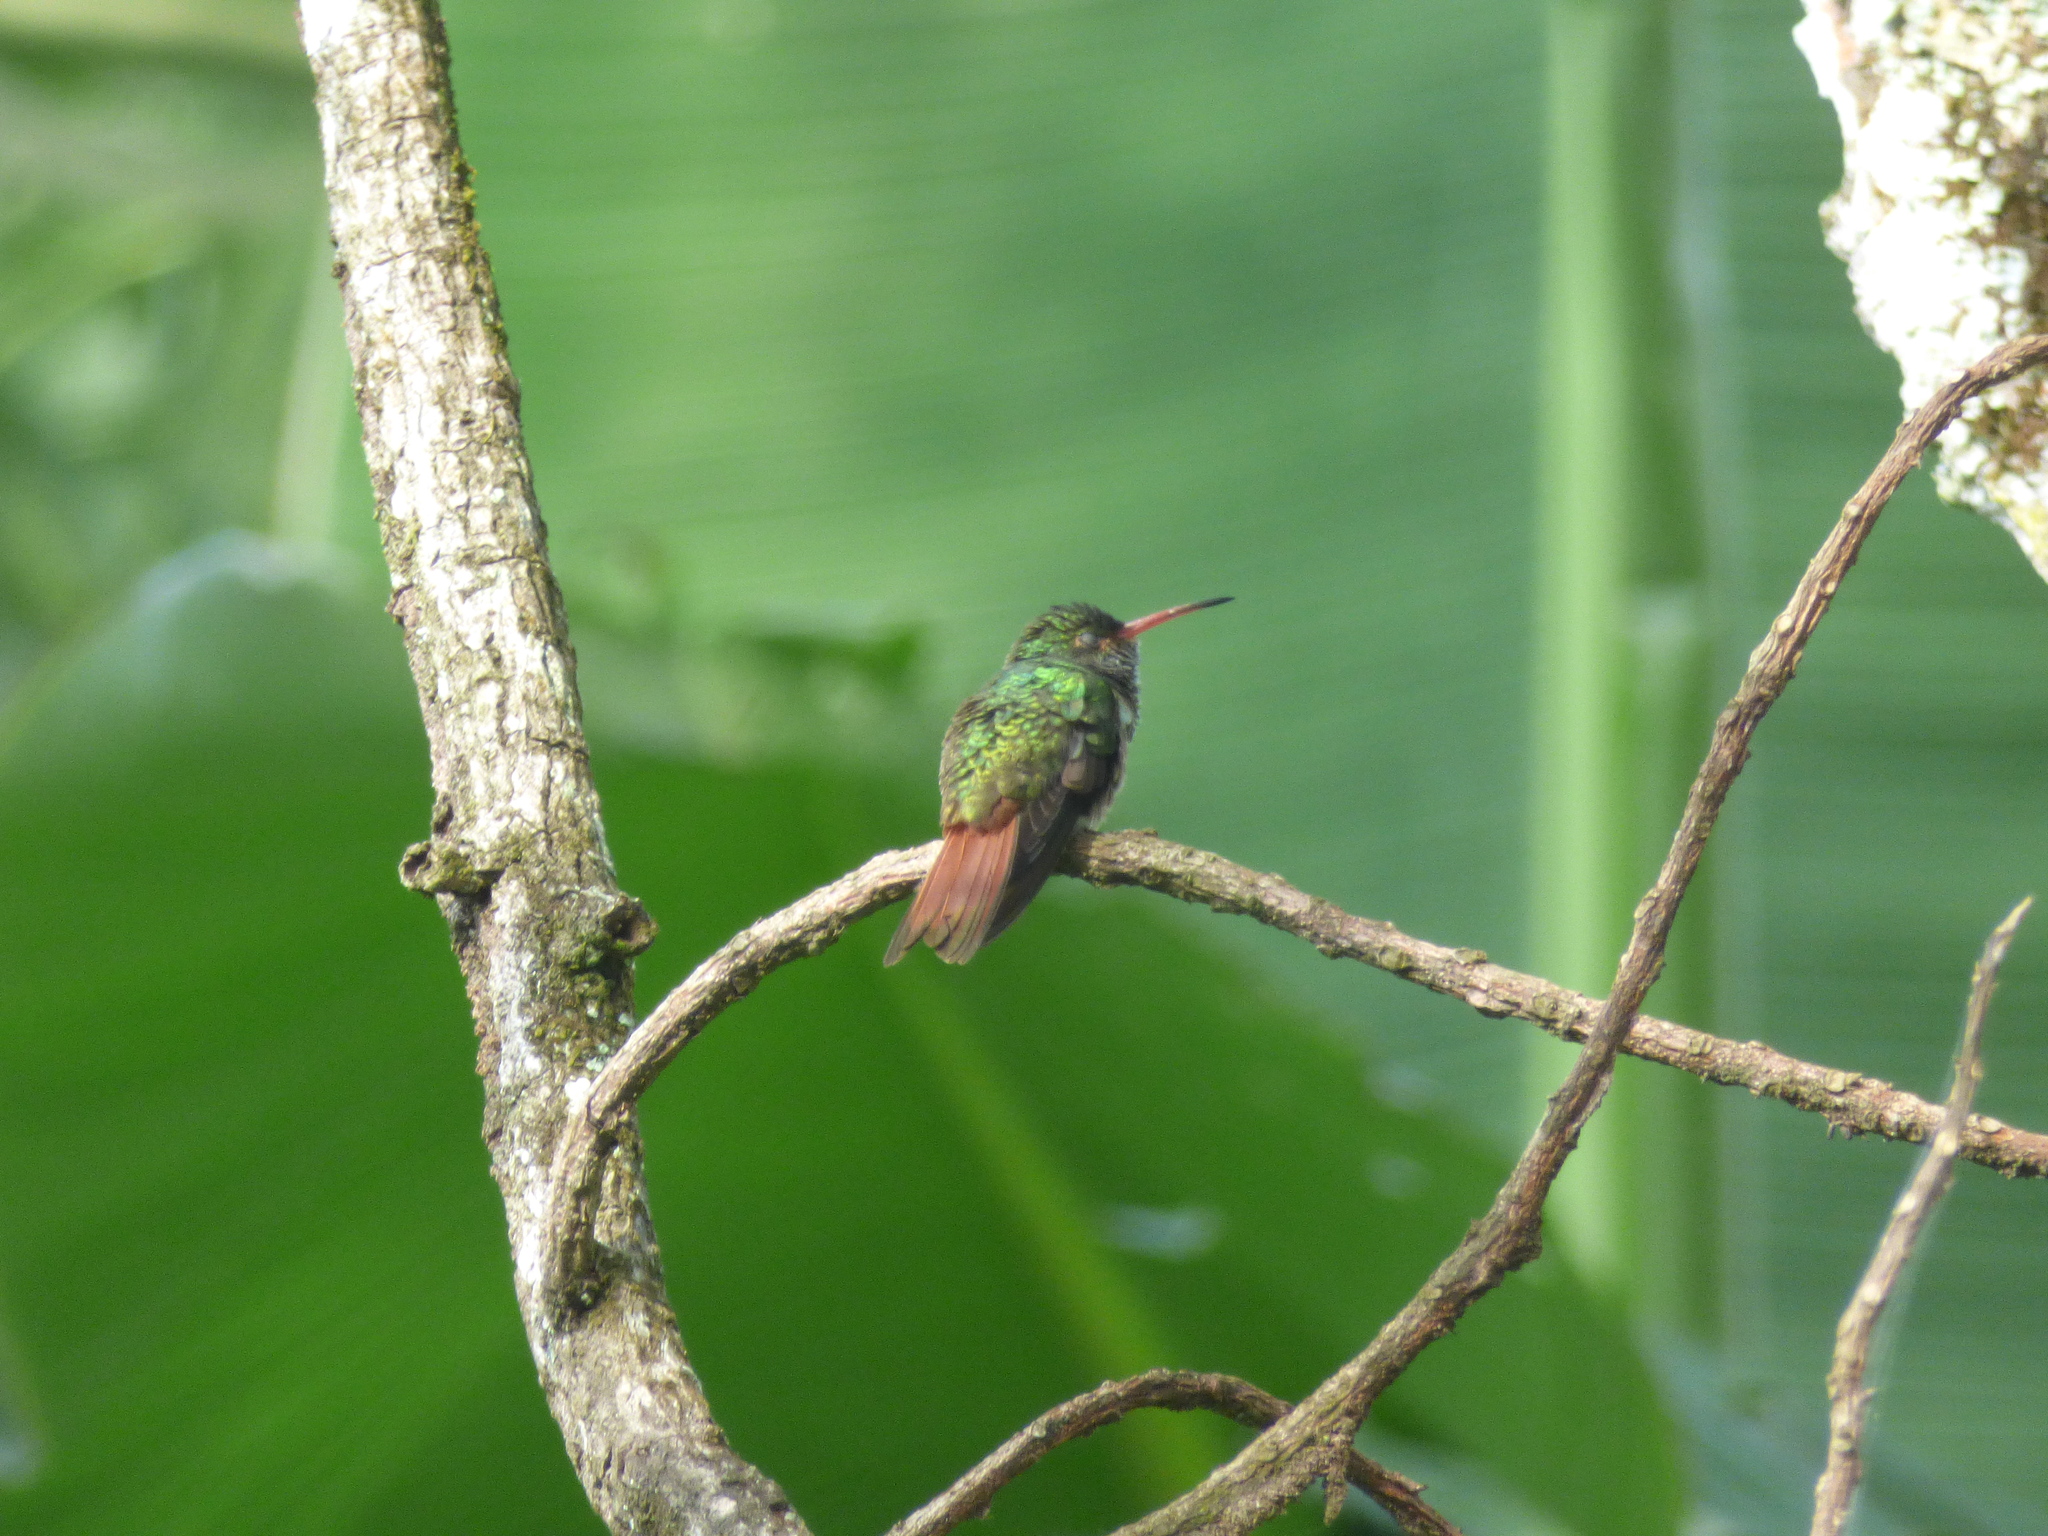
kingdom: Animalia
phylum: Chordata
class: Aves
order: Apodiformes
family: Trochilidae
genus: Amazilia
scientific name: Amazilia tzacatl
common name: Rufous-tailed hummingbird
